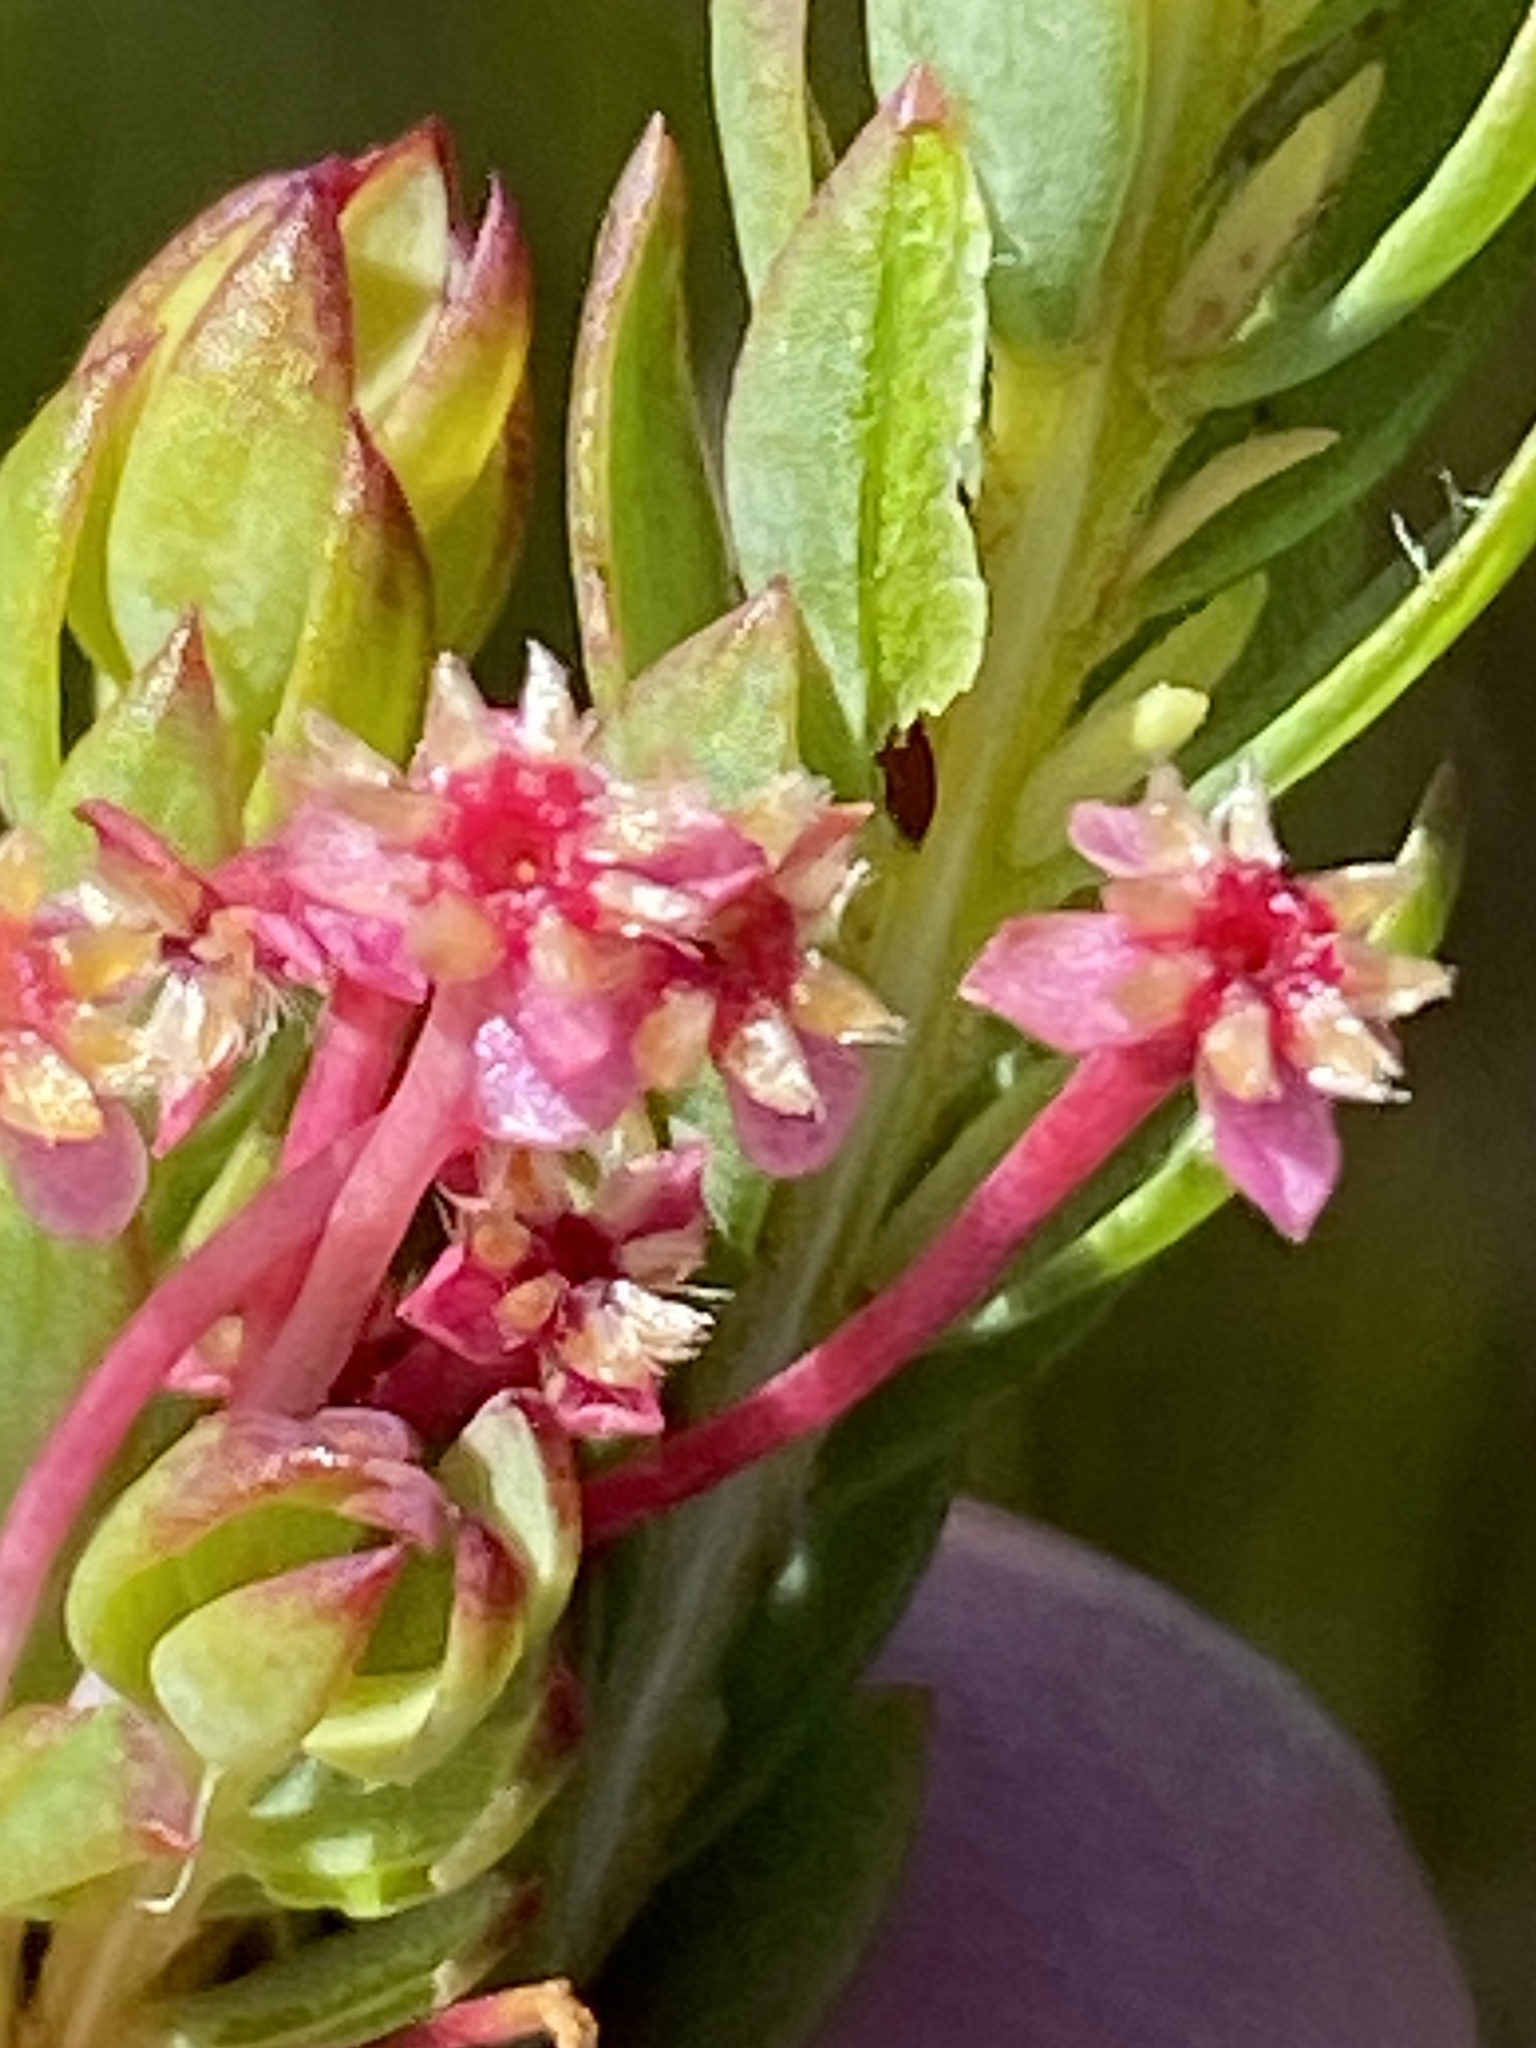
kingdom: Plantae
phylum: Tracheophyta
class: Magnoliopsida
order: Malvales
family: Thymelaeaceae
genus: Struthiola
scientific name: Struthiola dodecandra
